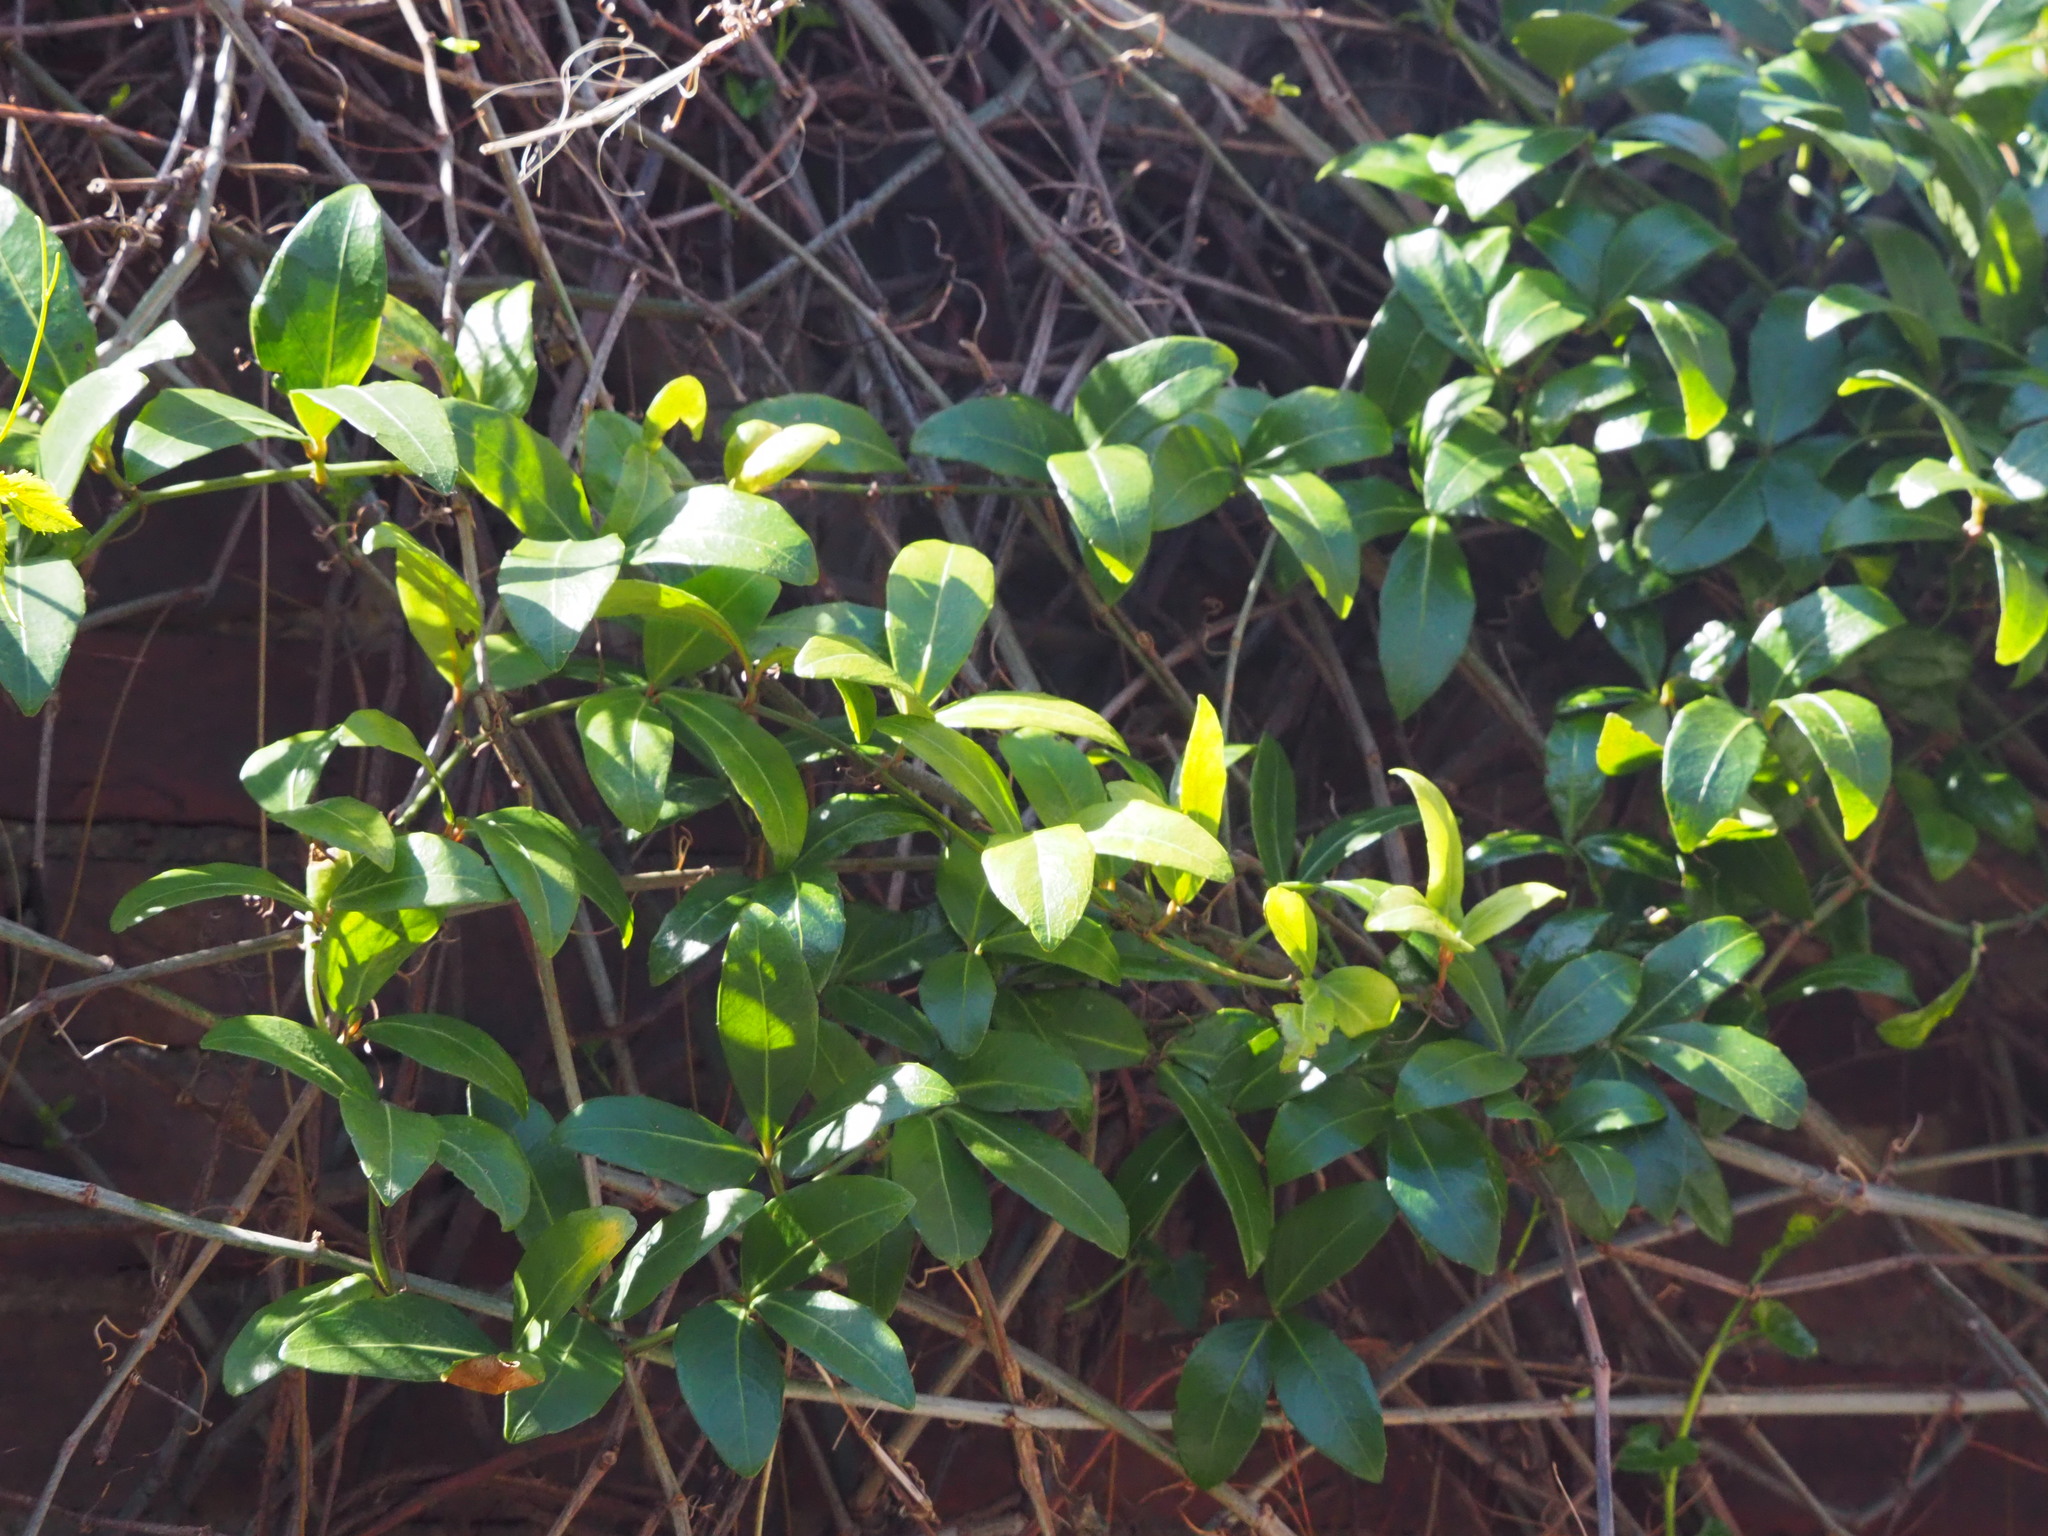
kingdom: Plantae
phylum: Tracheophyta
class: Magnoliopsida
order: Vitales
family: Vitaceae
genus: Tetrastigma
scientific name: Tetrastigma formosanum
